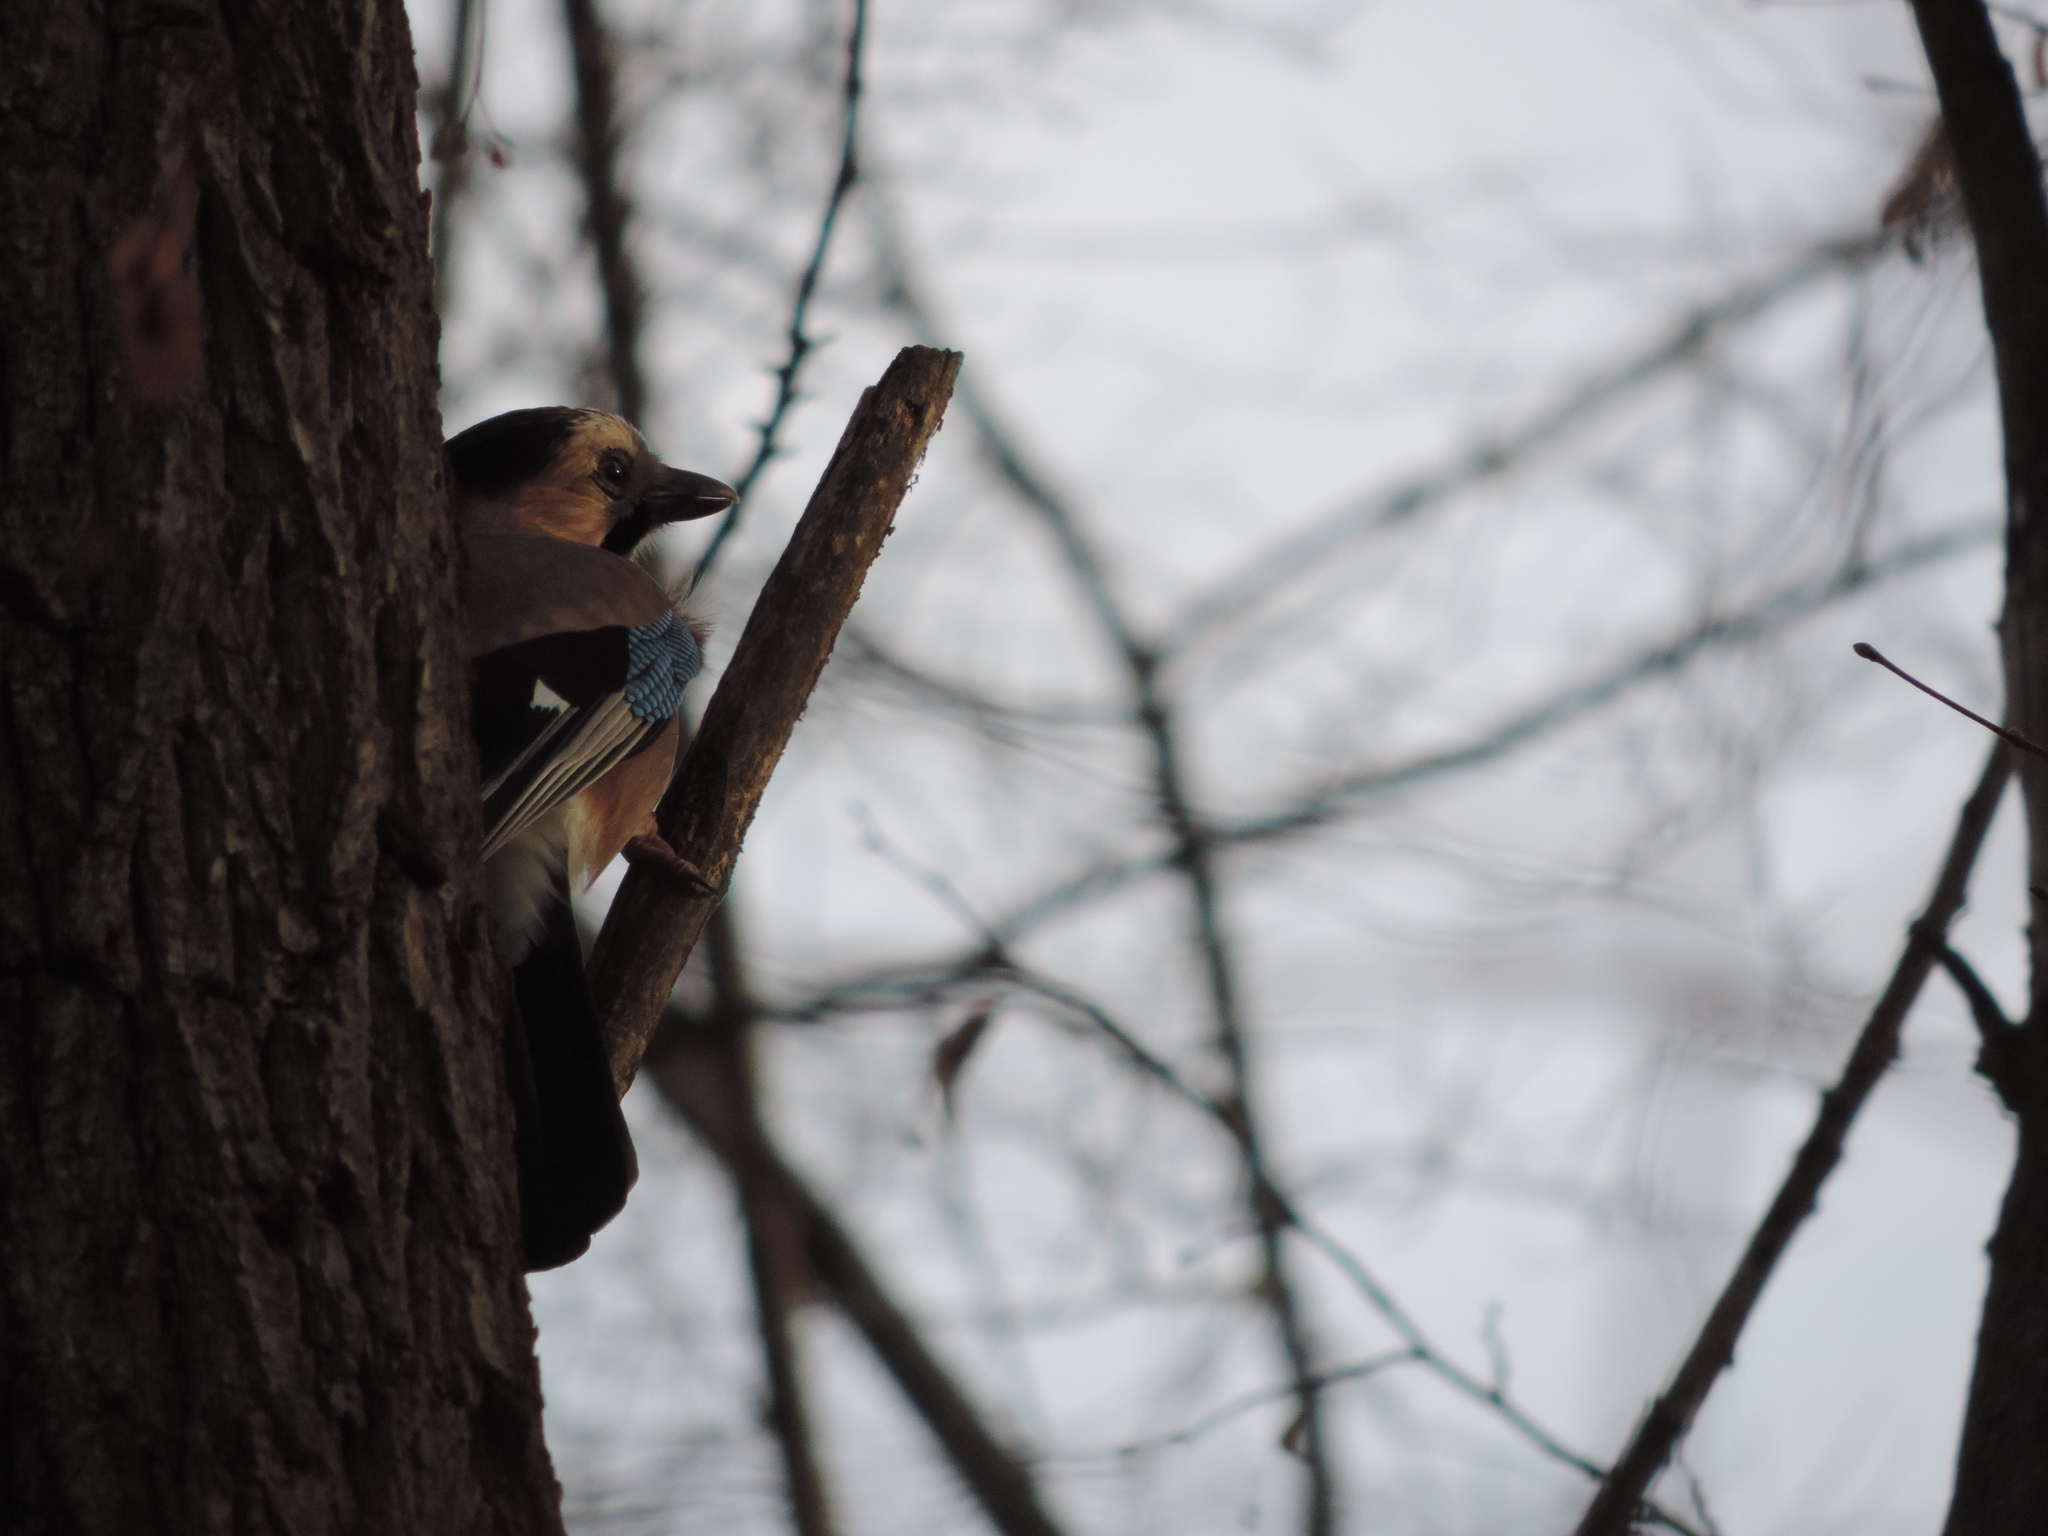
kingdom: Animalia
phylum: Chordata
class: Aves
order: Passeriformes
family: Corvidae
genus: Garrulus
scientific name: Garrulus glandarius
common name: Eurasian jay
